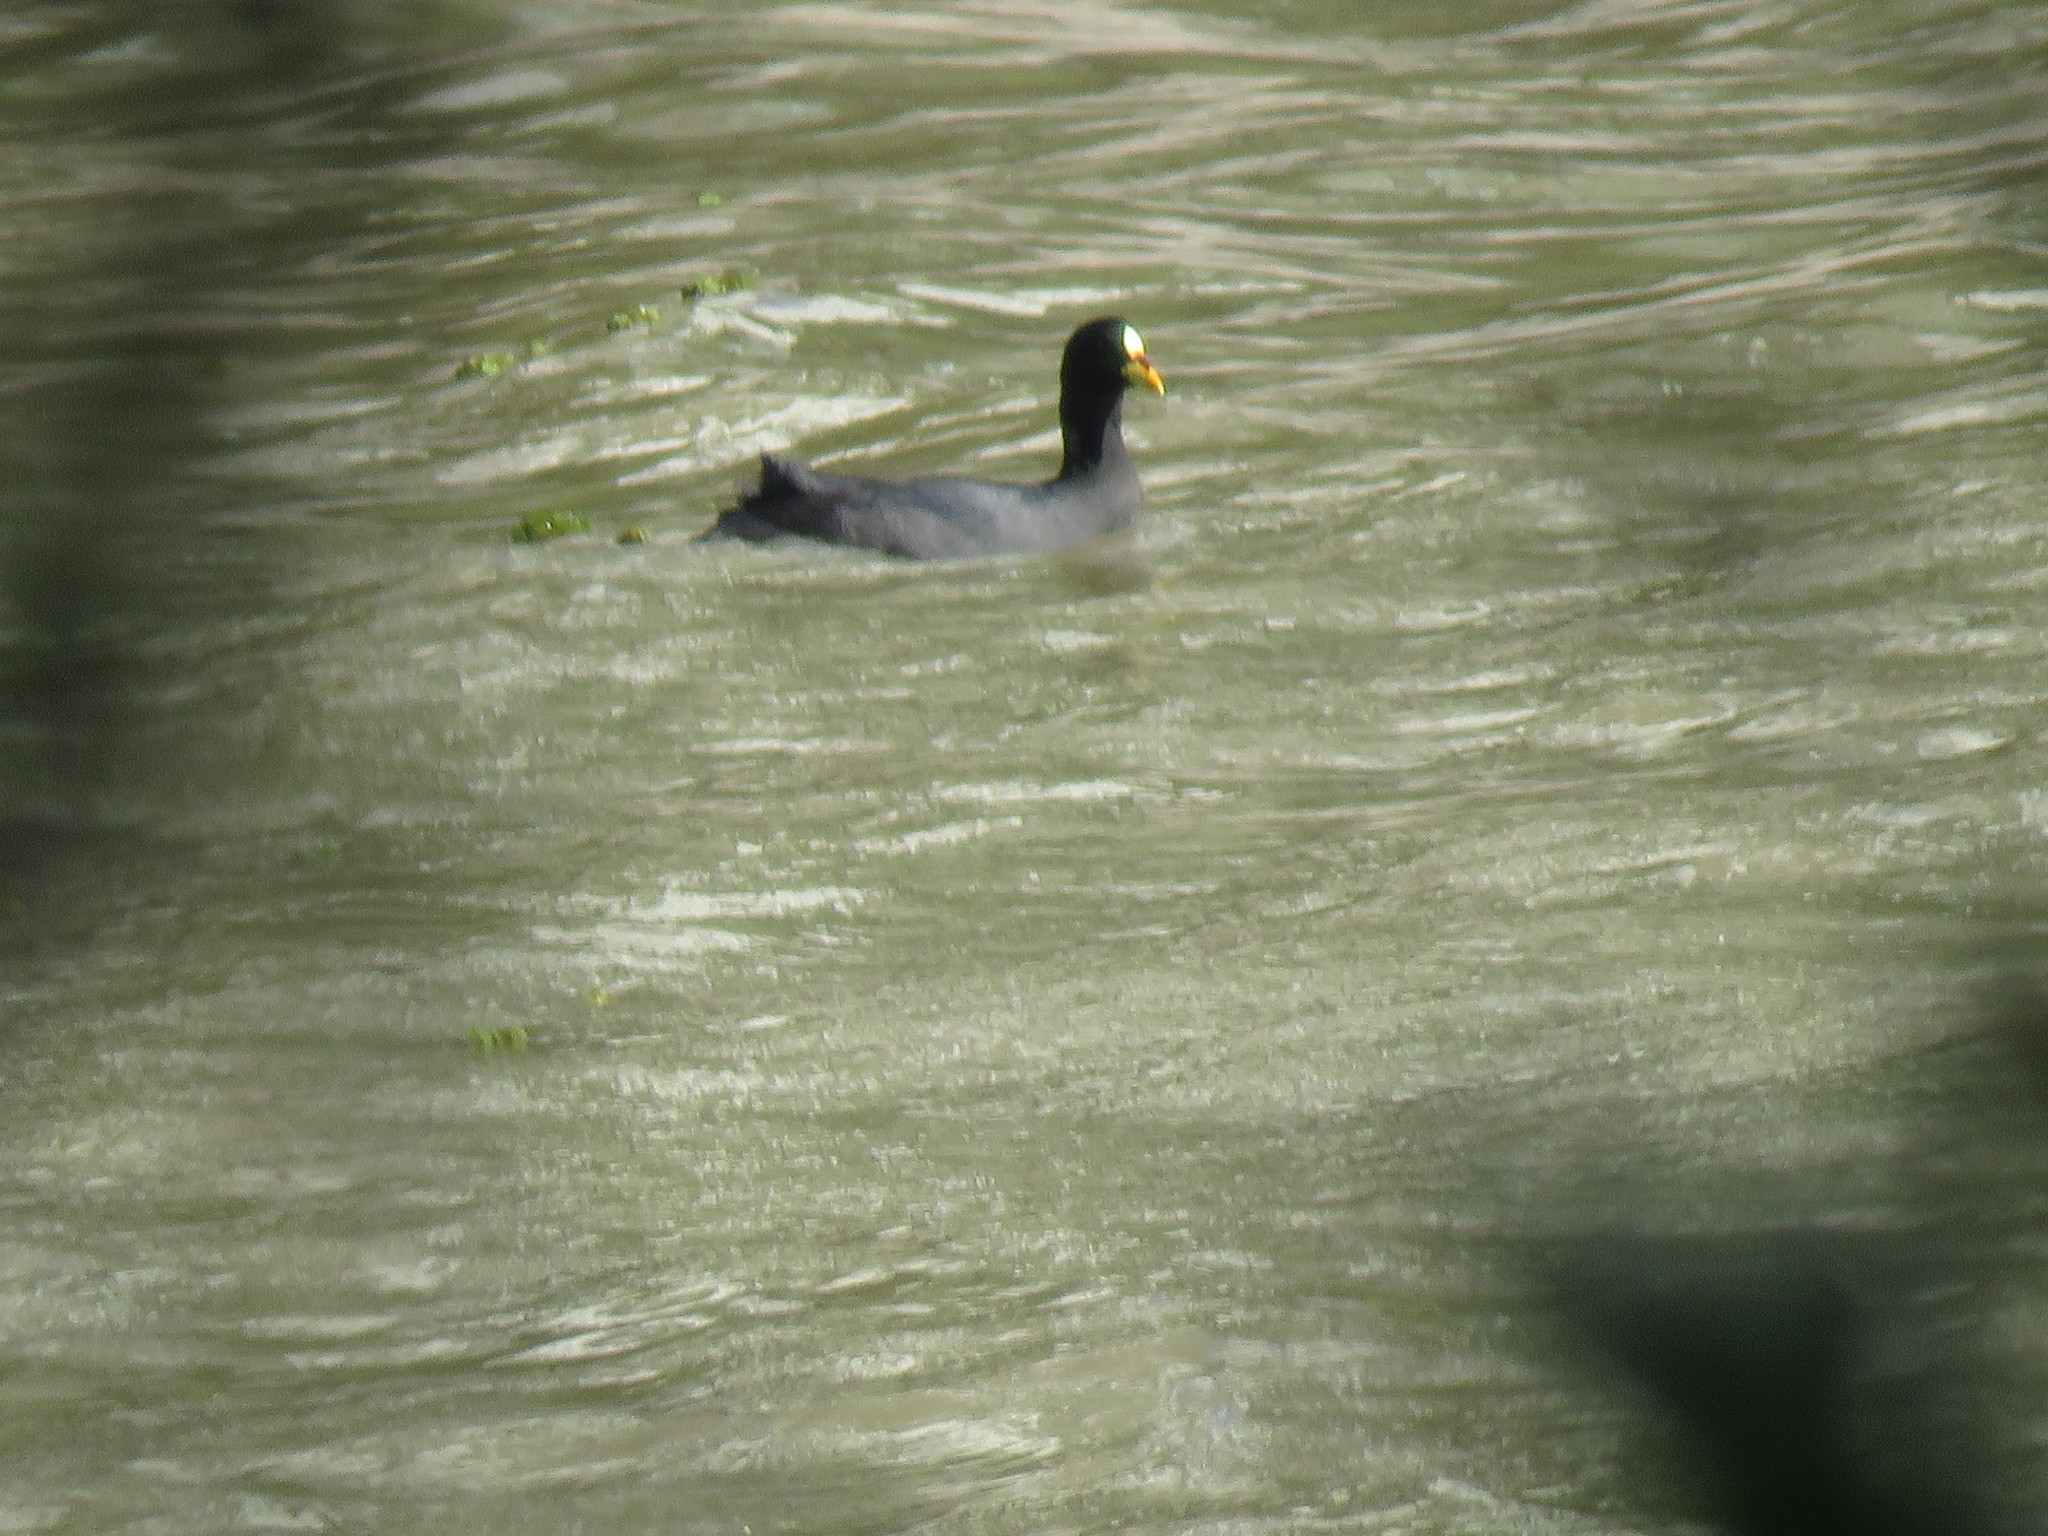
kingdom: Animalia
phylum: Chordata
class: Aves
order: Gruiformes
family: Rallidae
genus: Fulica
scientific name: Fulica armillata
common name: Red-gartered coot
